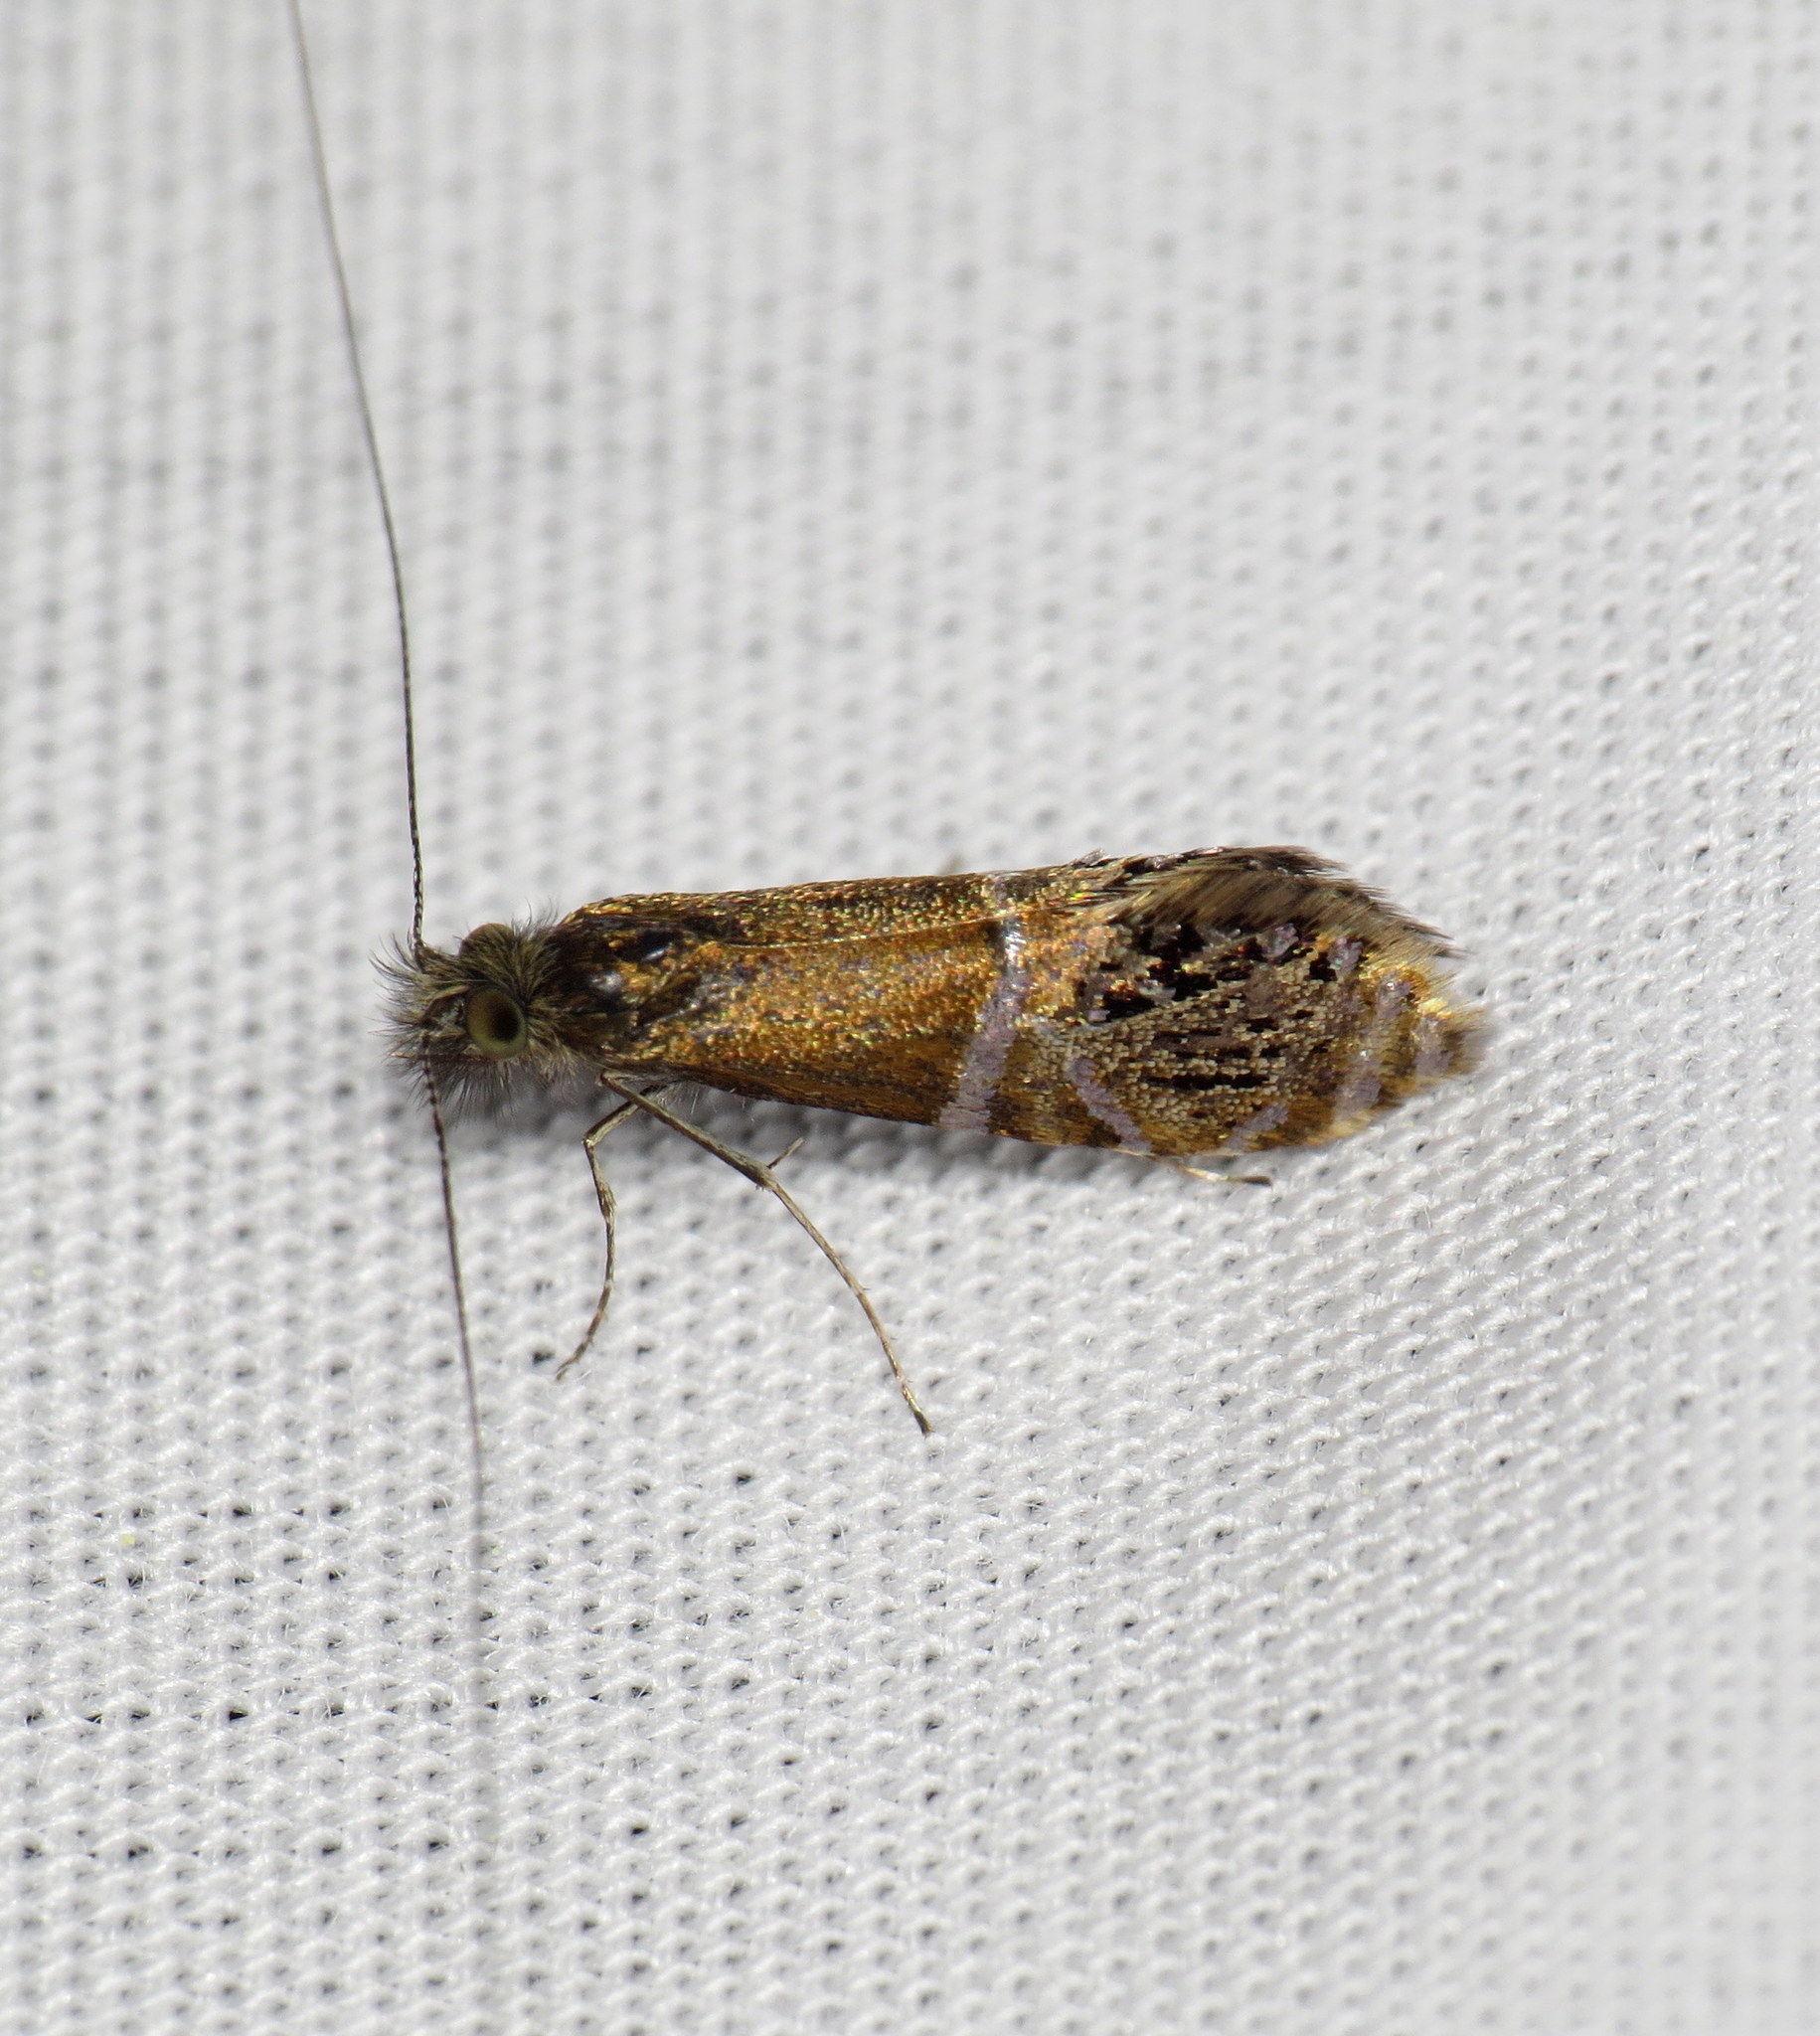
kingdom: Animalia
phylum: Arthropoda
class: Insecta
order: Lepidoptera
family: Adelidae
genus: Adela
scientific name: Adela ridingsella
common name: Ridings' fairy moth
